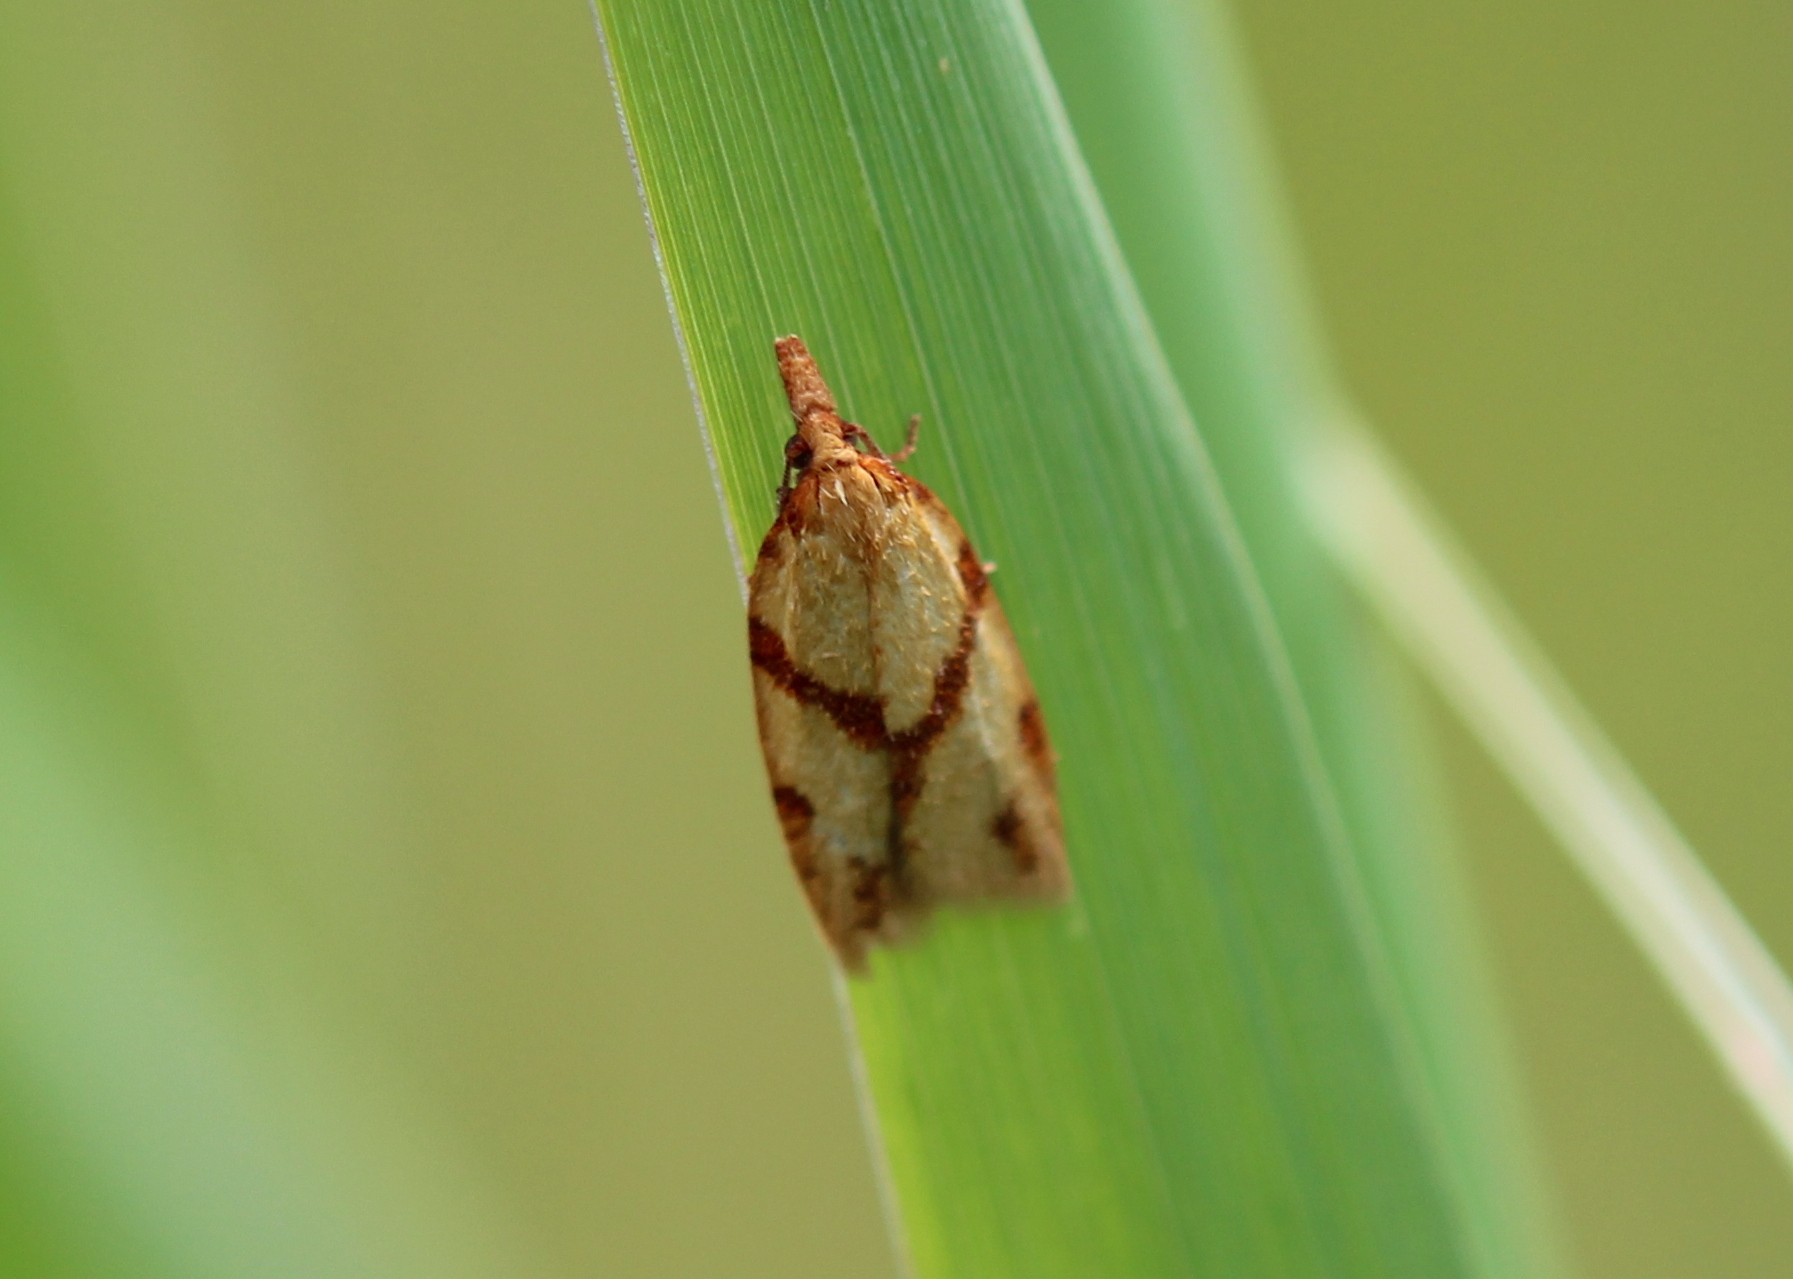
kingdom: Animalia
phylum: Arthropoda
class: Insecta
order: Lepidoptera
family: Tortricidae
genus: Sparganothis
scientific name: Sparganothis unifasciana
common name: One-lined sparganothis moth
